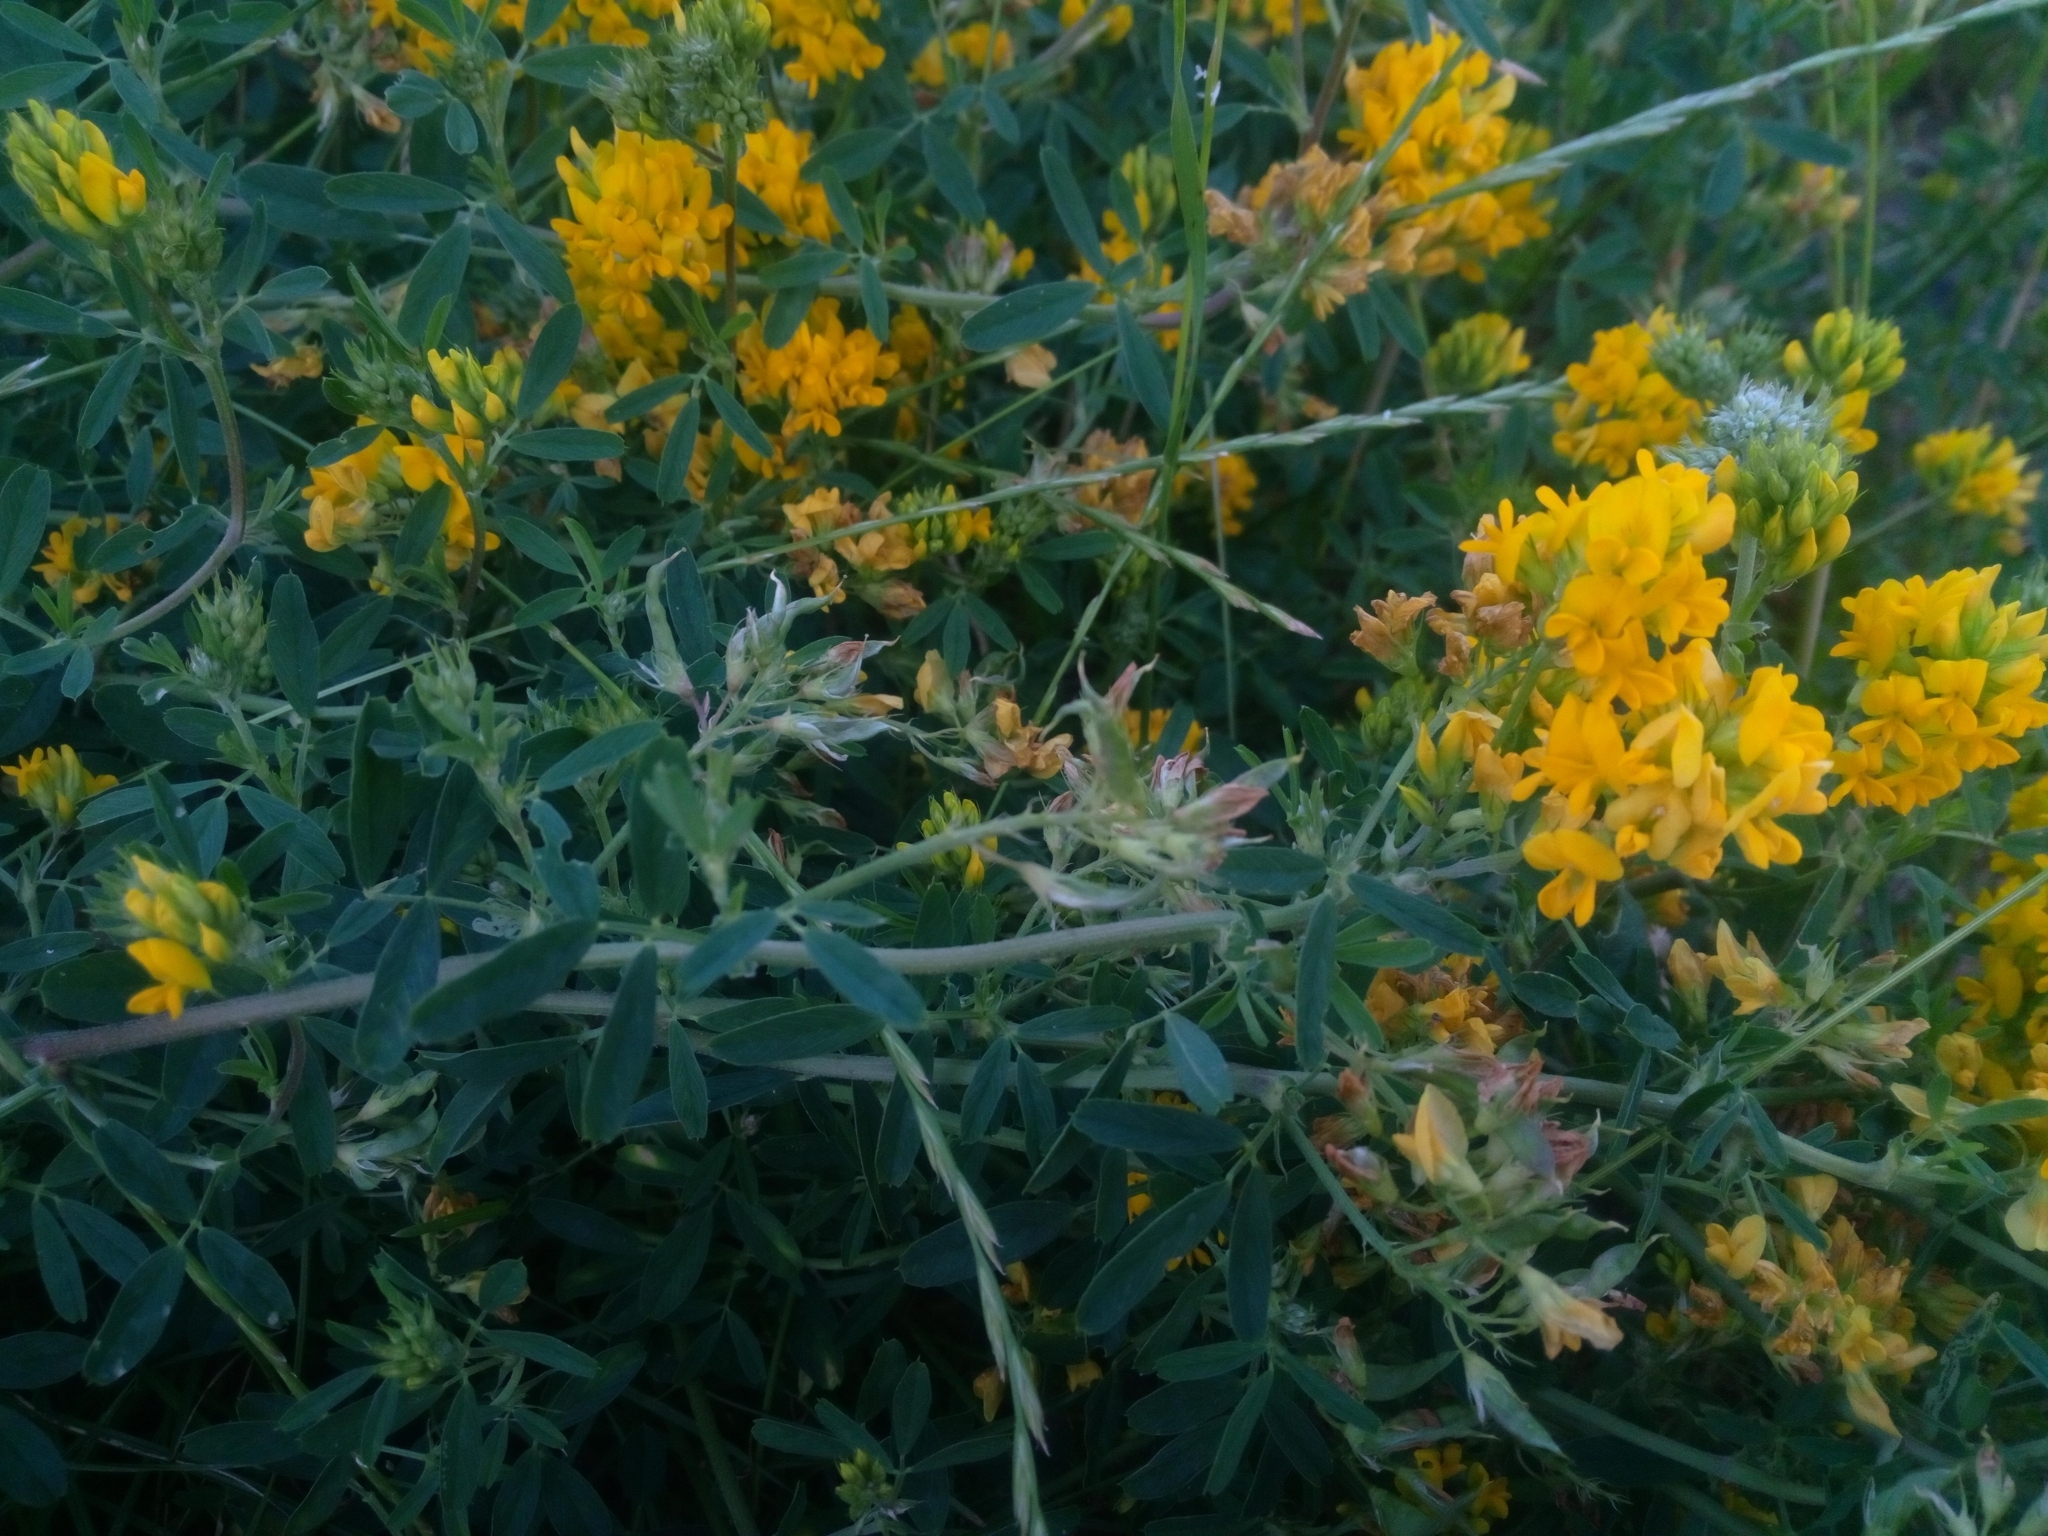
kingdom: Plantae
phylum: Tracheophyta
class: Magnoliopsida
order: Fabales
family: Fabaceae
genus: Medicago
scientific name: Medicago falcata
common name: Sickle medick
